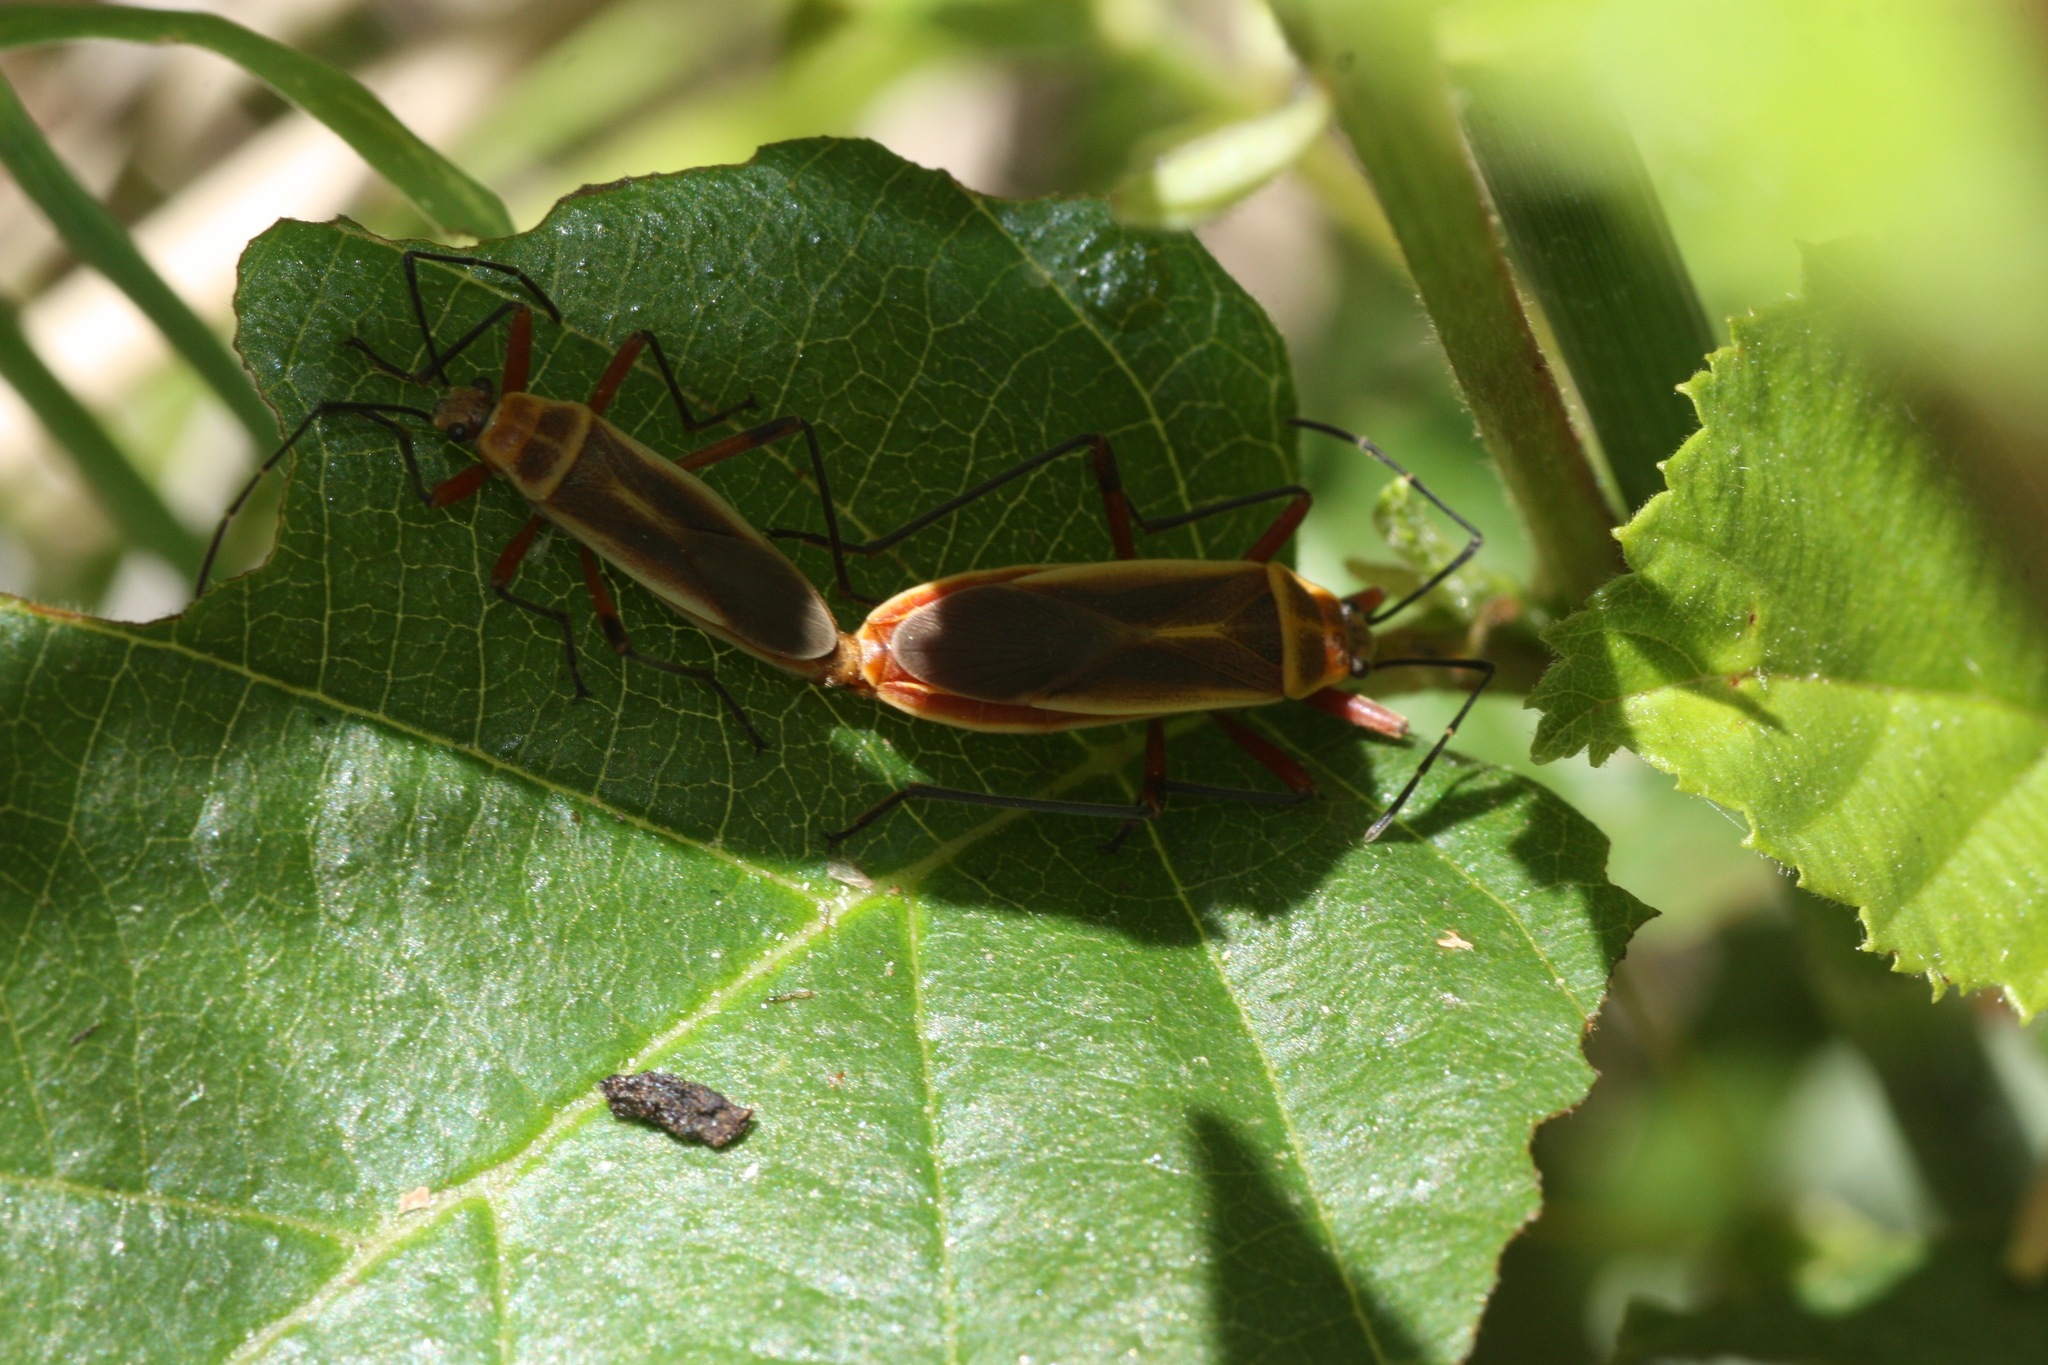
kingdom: Animalia
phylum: Arthropoda
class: Insecta
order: Hemiptera
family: Largidae
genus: Stenomacra
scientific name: Stenomacra marginella
